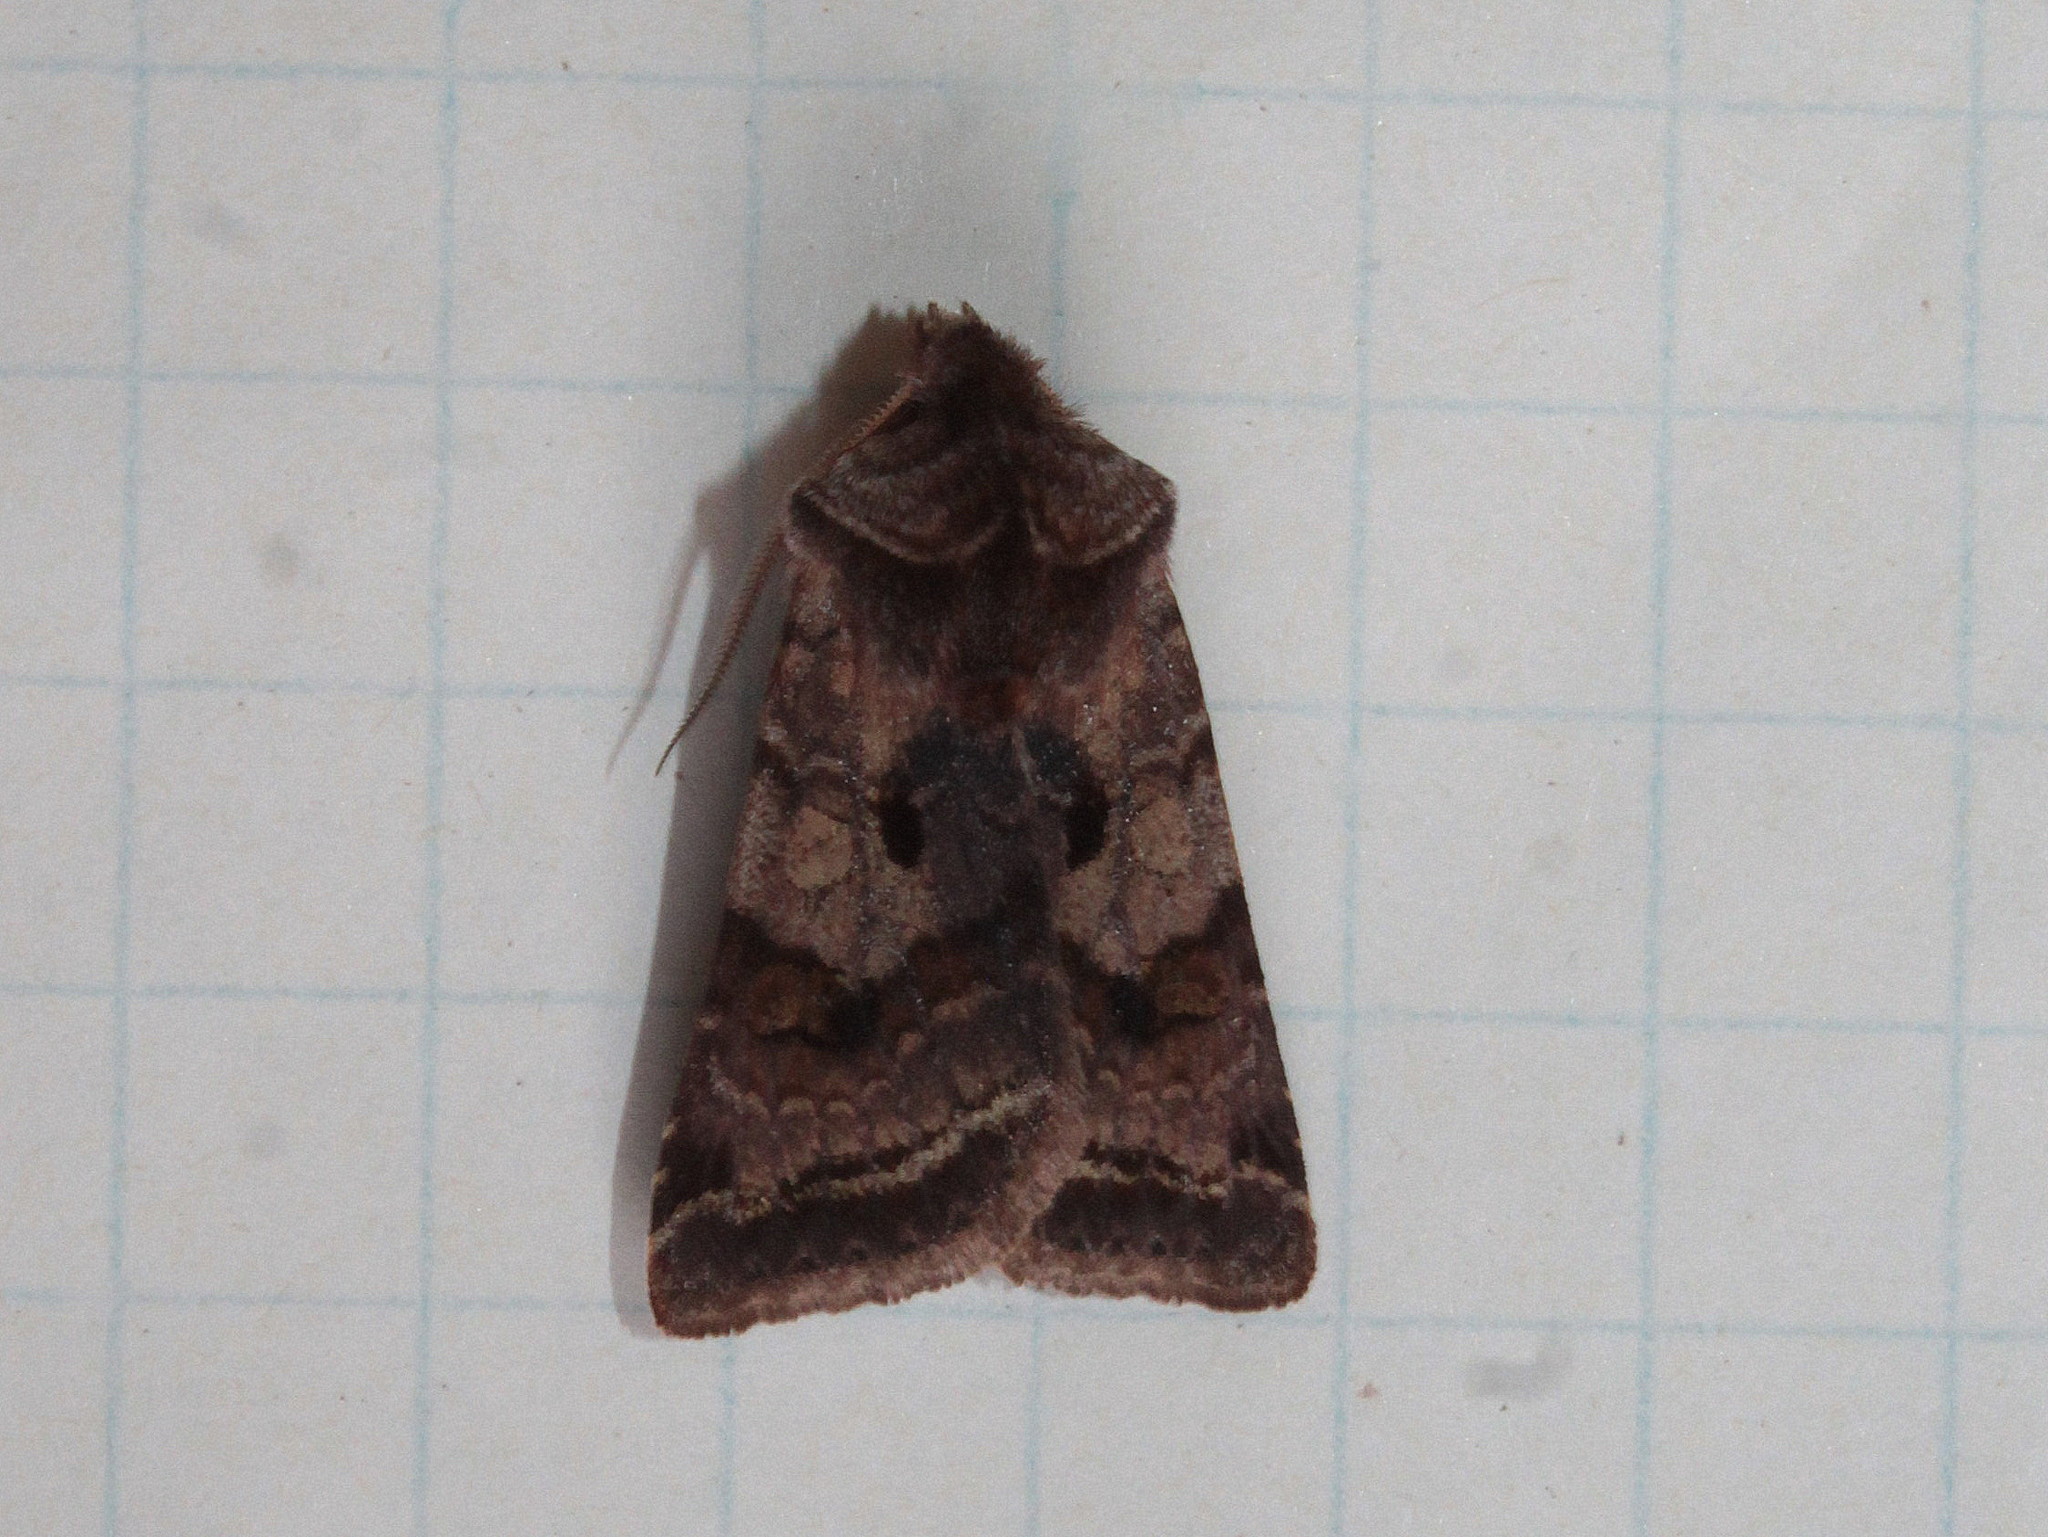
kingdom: Animalia
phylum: Arthropoda
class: Insecta
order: Lepidoptera
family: Noctuidae
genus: Cerastis
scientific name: Cerastis salicarum
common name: Willow dart
